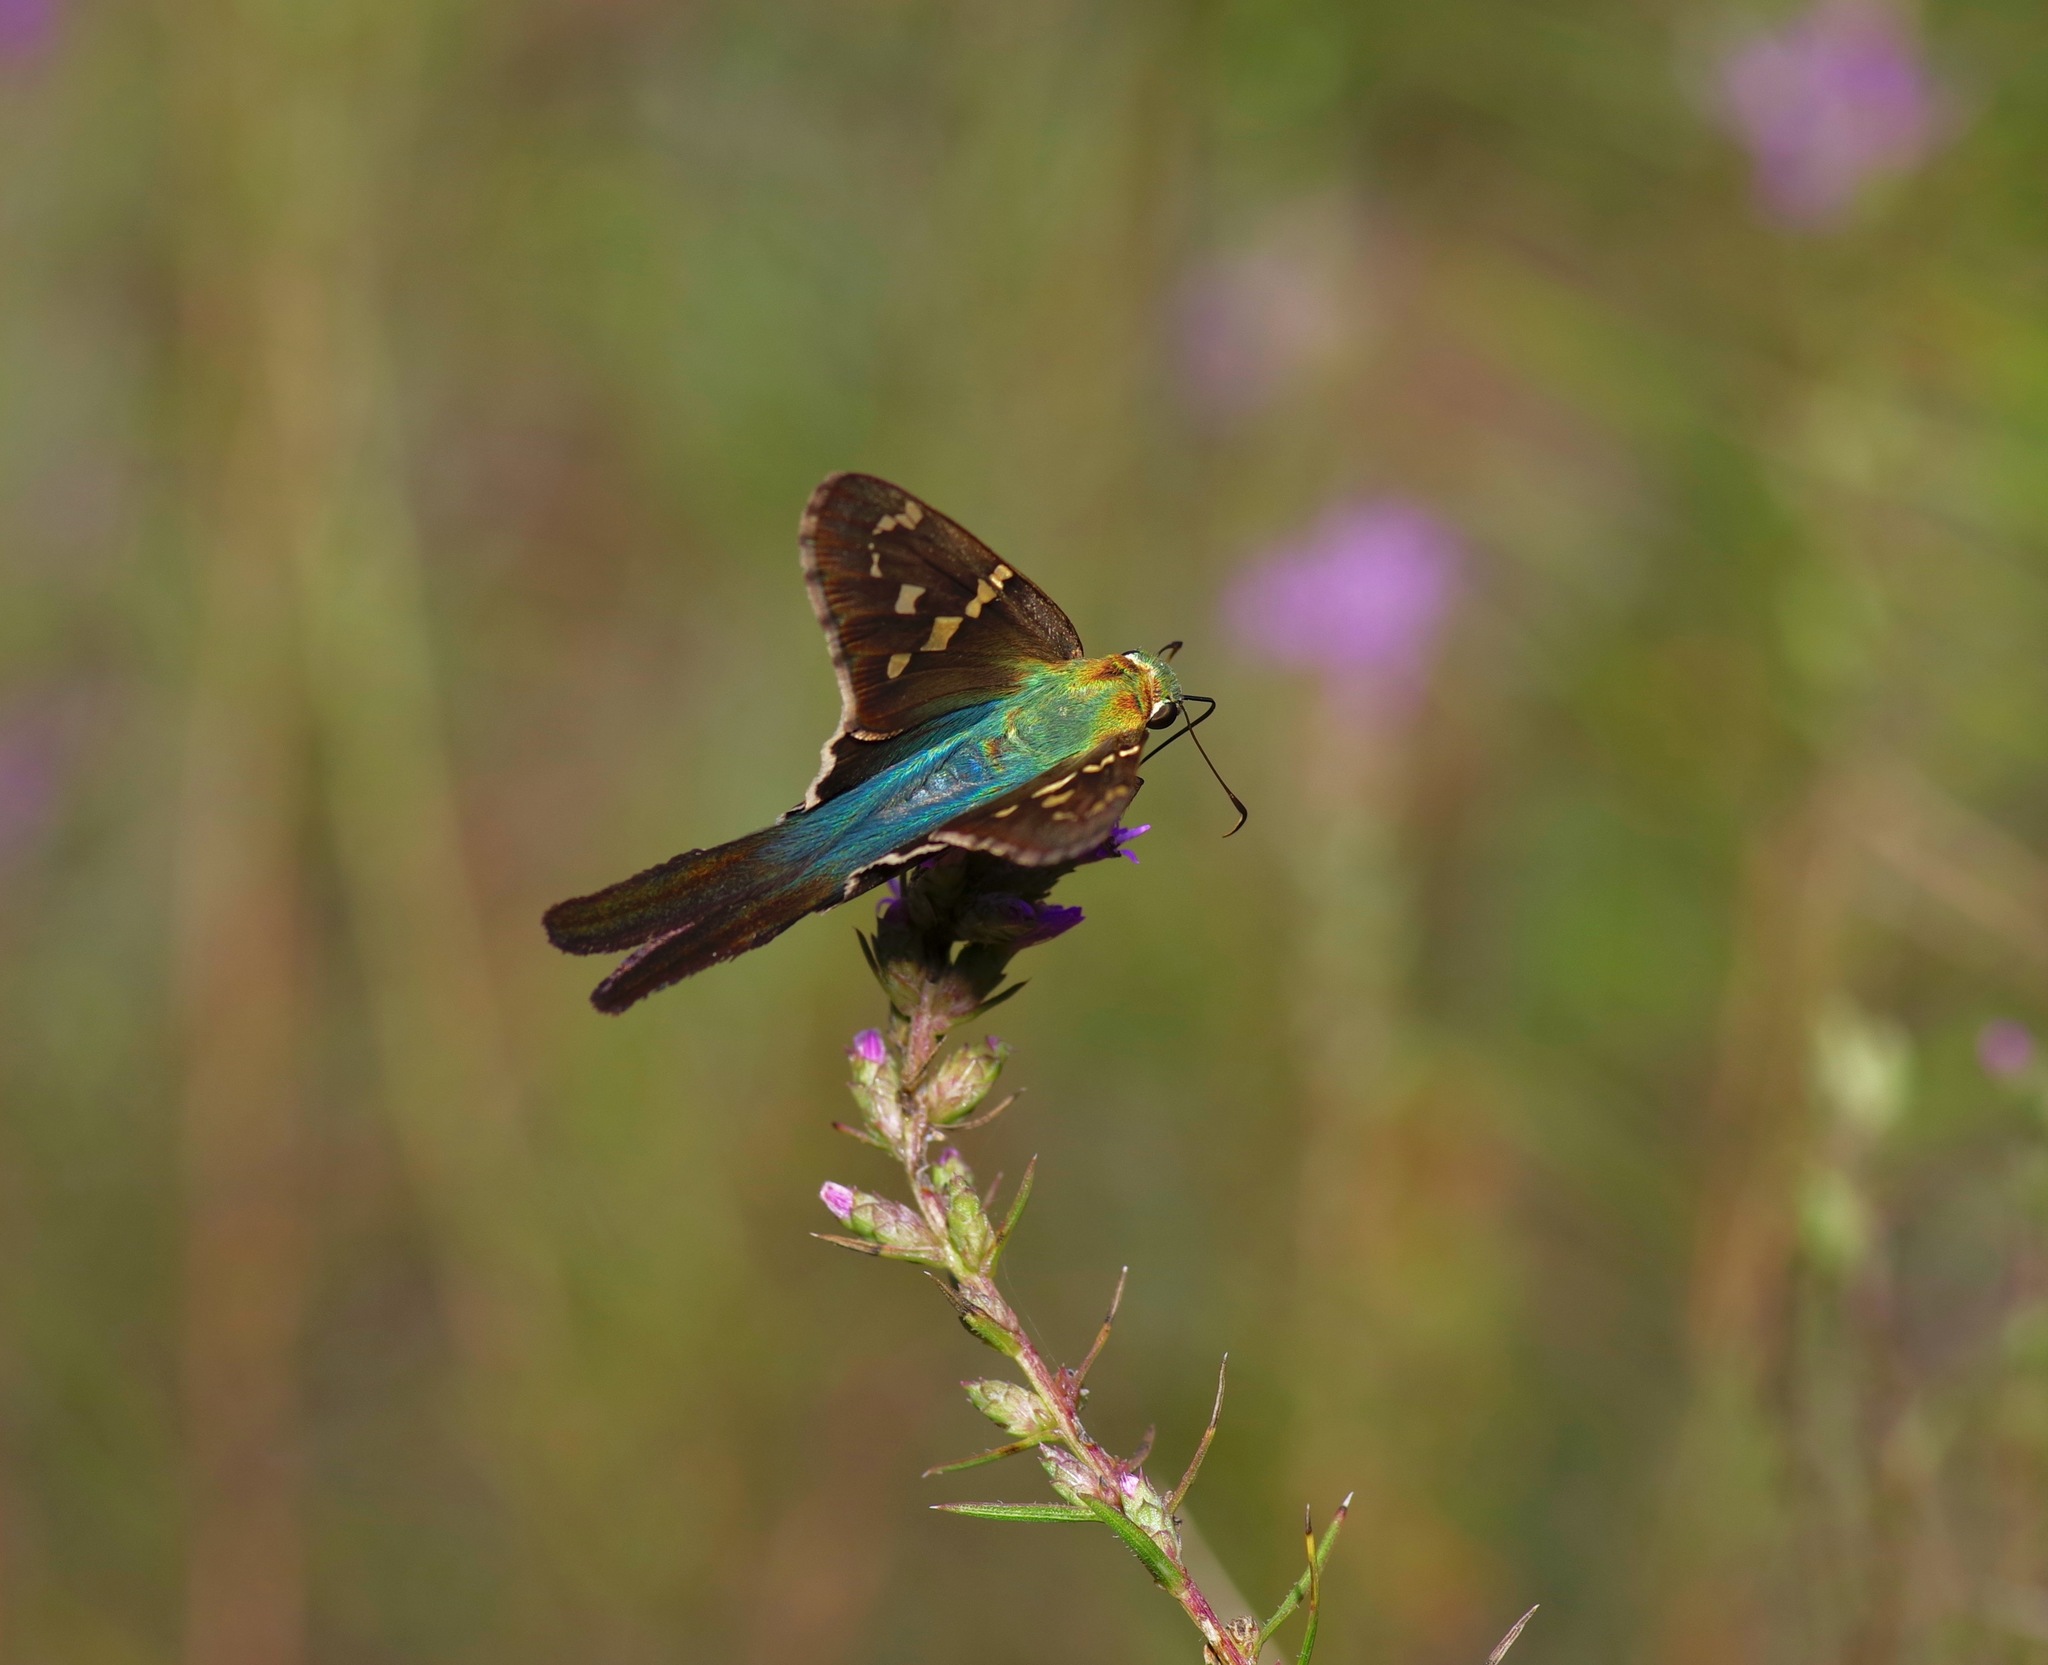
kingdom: Animalia
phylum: Arthropoda
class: Insecta
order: Lepidoptera
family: Hesperiidae
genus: Urbanus
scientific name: Urbanus proteus
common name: Long-tailed skipper
